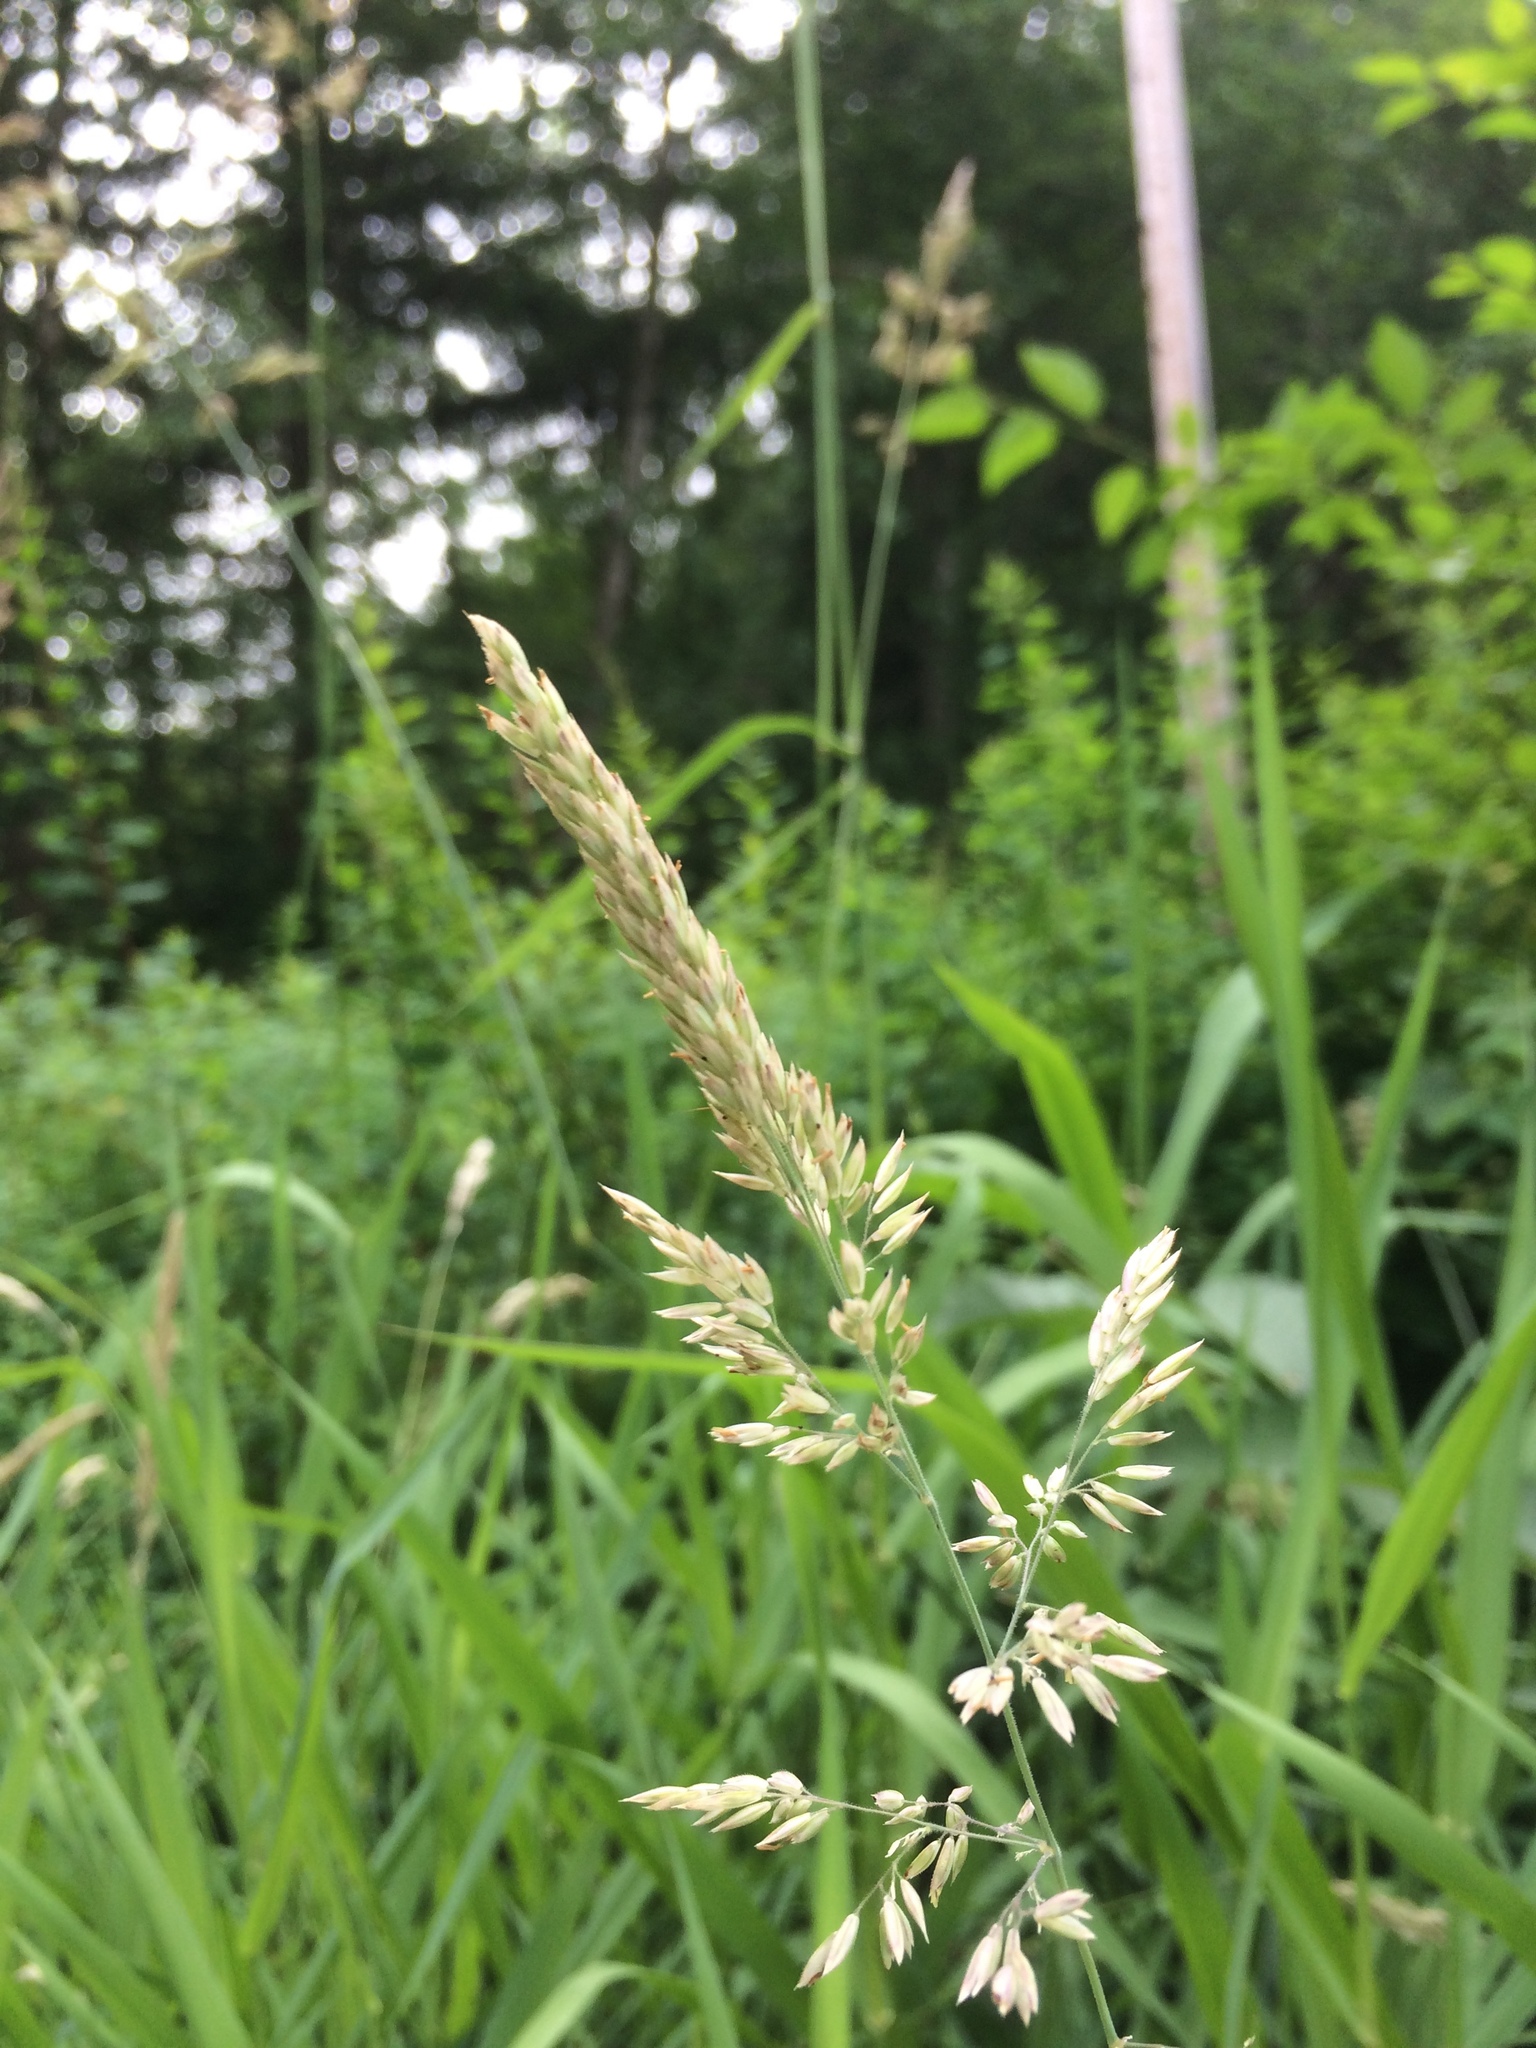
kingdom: Plantae
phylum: Tracheophyta
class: Liliopsida
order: Poales
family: Poaceae
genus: Phalaris
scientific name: Phalaris arundinacea
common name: Reed canary-grass
